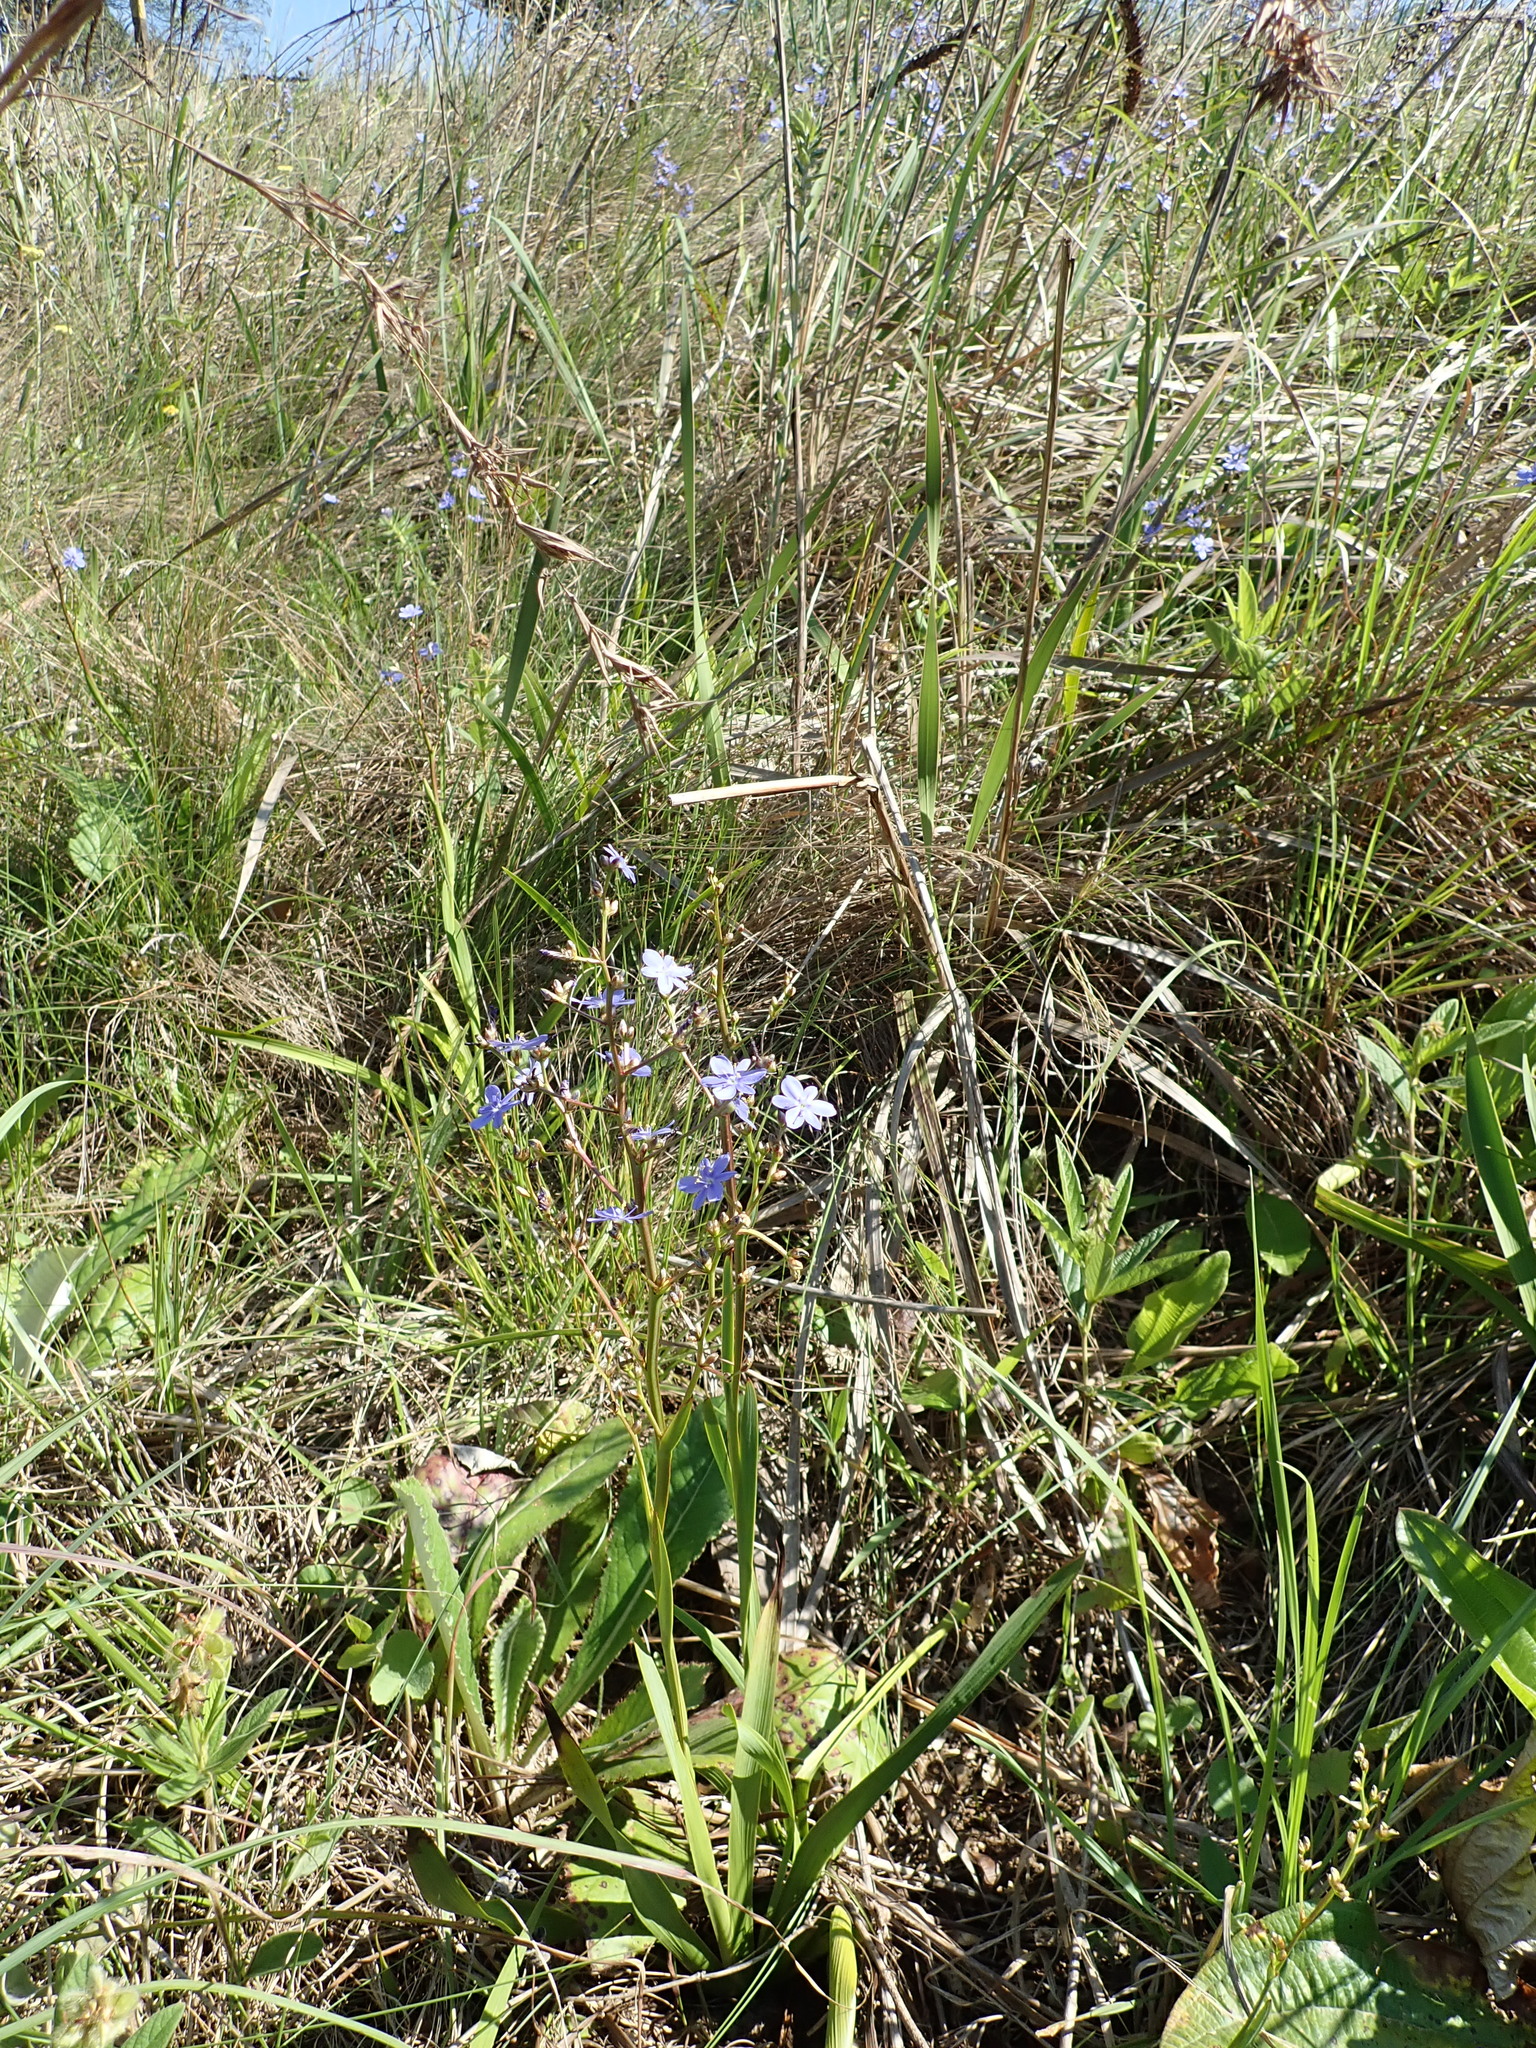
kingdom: Plantae
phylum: Tracheophyta
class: Liliopsida
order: Asparagales
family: Iridaceae
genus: Aristea
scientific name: Aristea ecklonii
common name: Blue corn-lily
